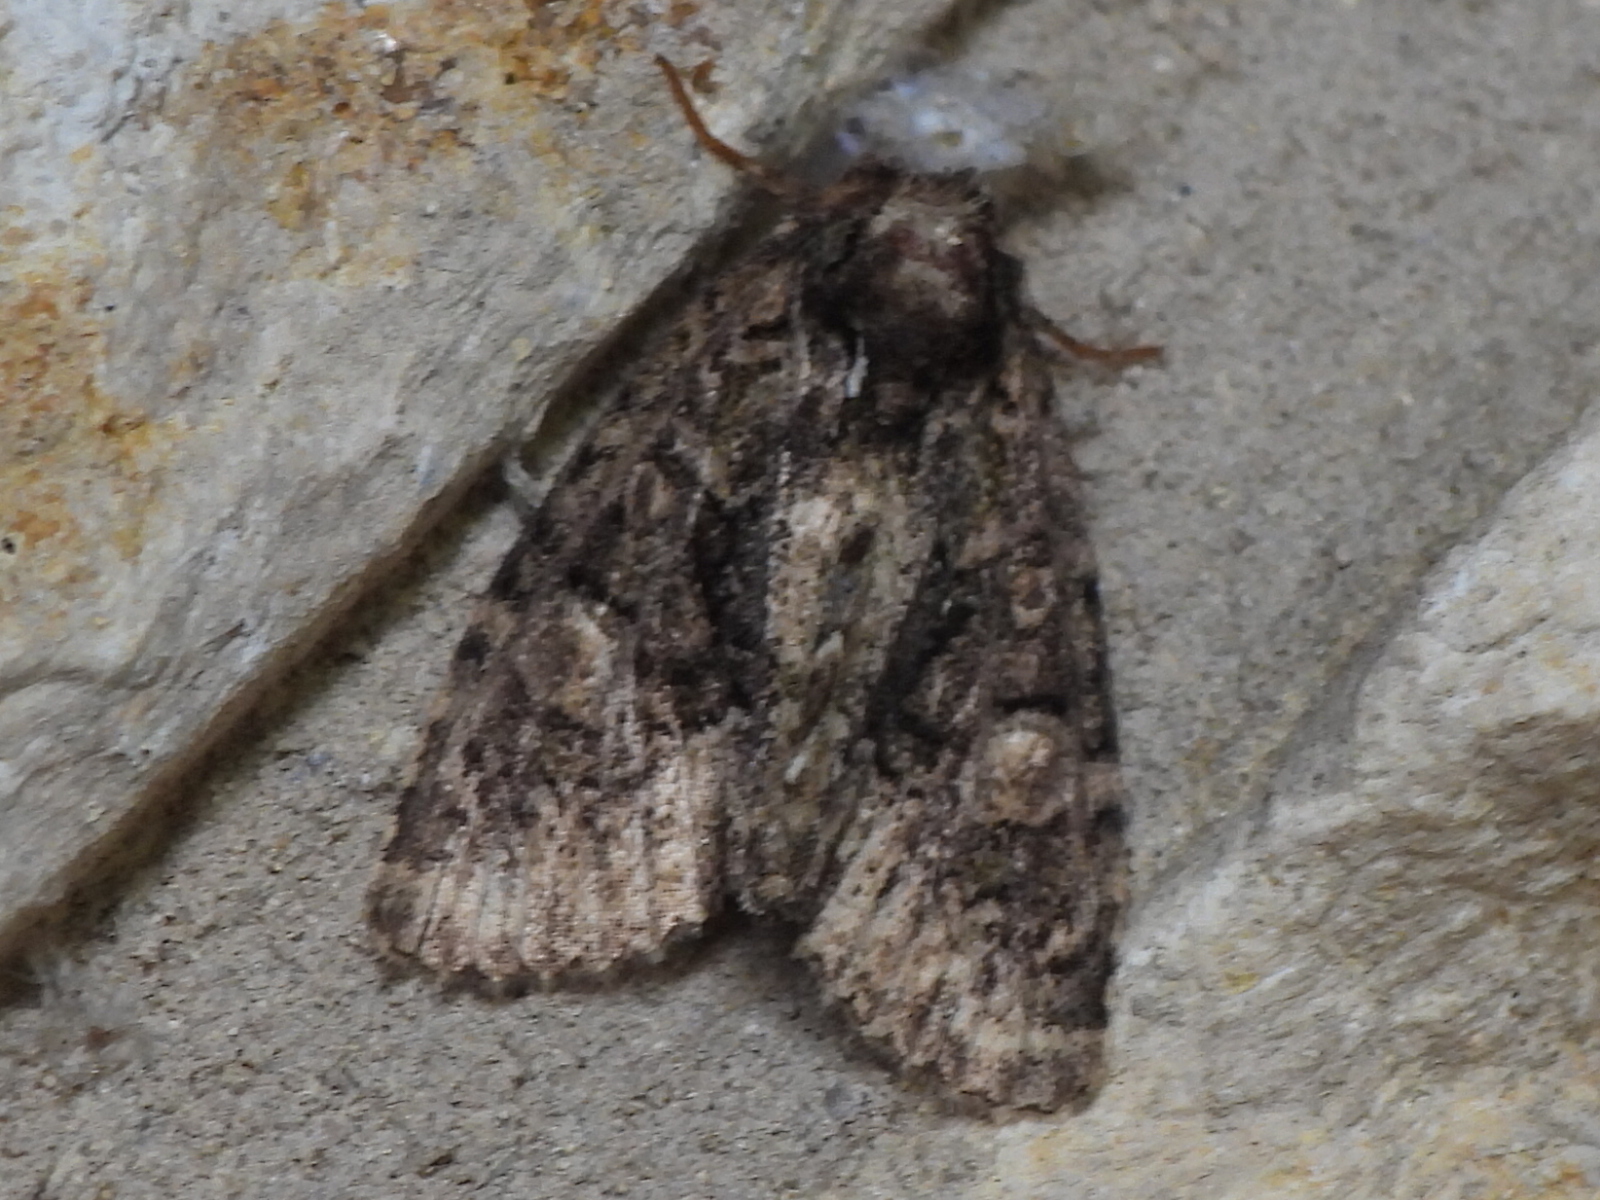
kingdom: Animalia
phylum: Arthropoda
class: Insecta
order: Lepidoptera
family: Noctuidae
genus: Phosphila
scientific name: Phosphila miselioides
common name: Spotted phosphila moth
